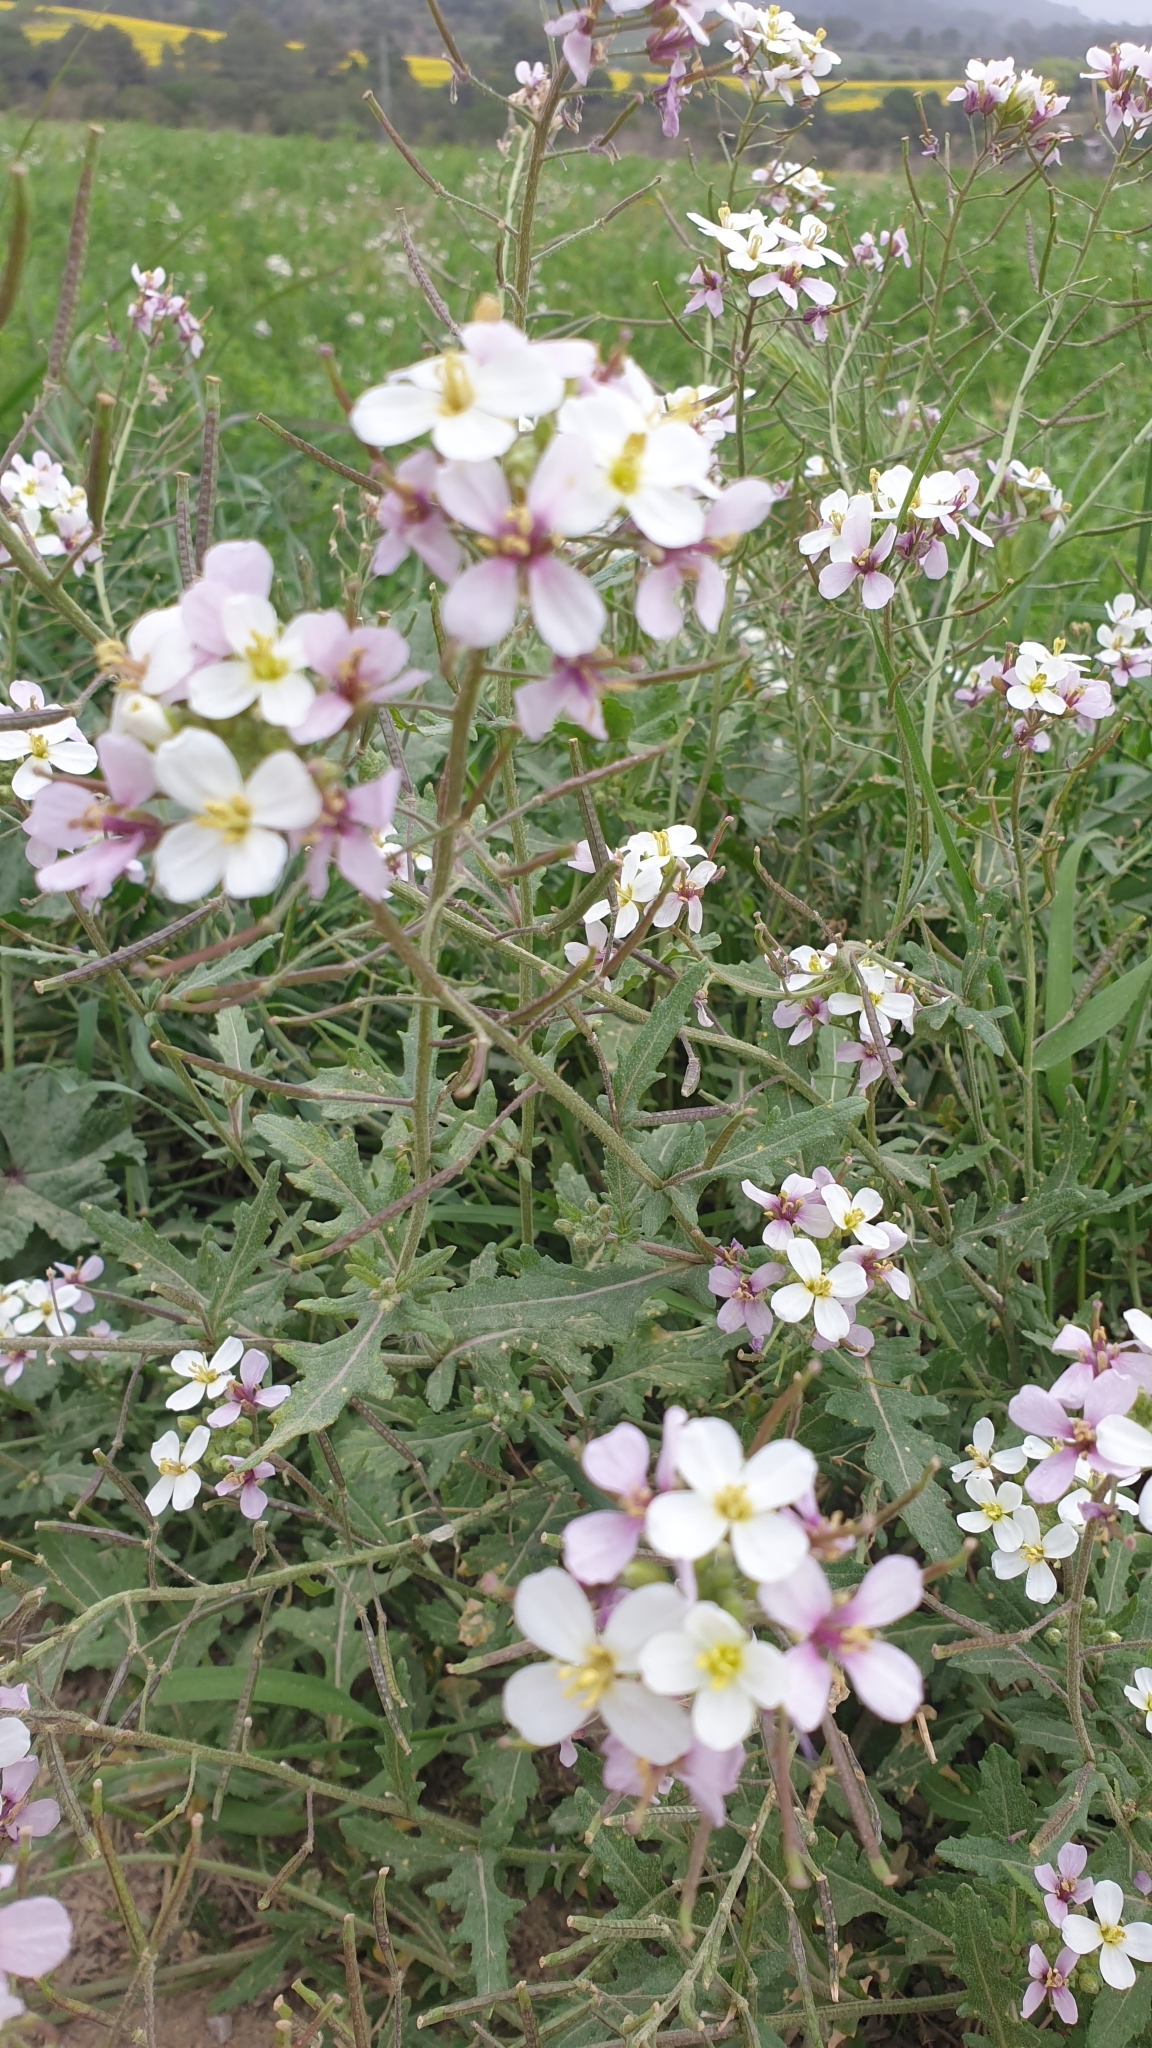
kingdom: Plantae
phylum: Tracheophyta
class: Magnoliopsida
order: Brassicales
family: Brassicaceae
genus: Diplotaxis
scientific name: Diplotaxis erucoides
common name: White rocket
